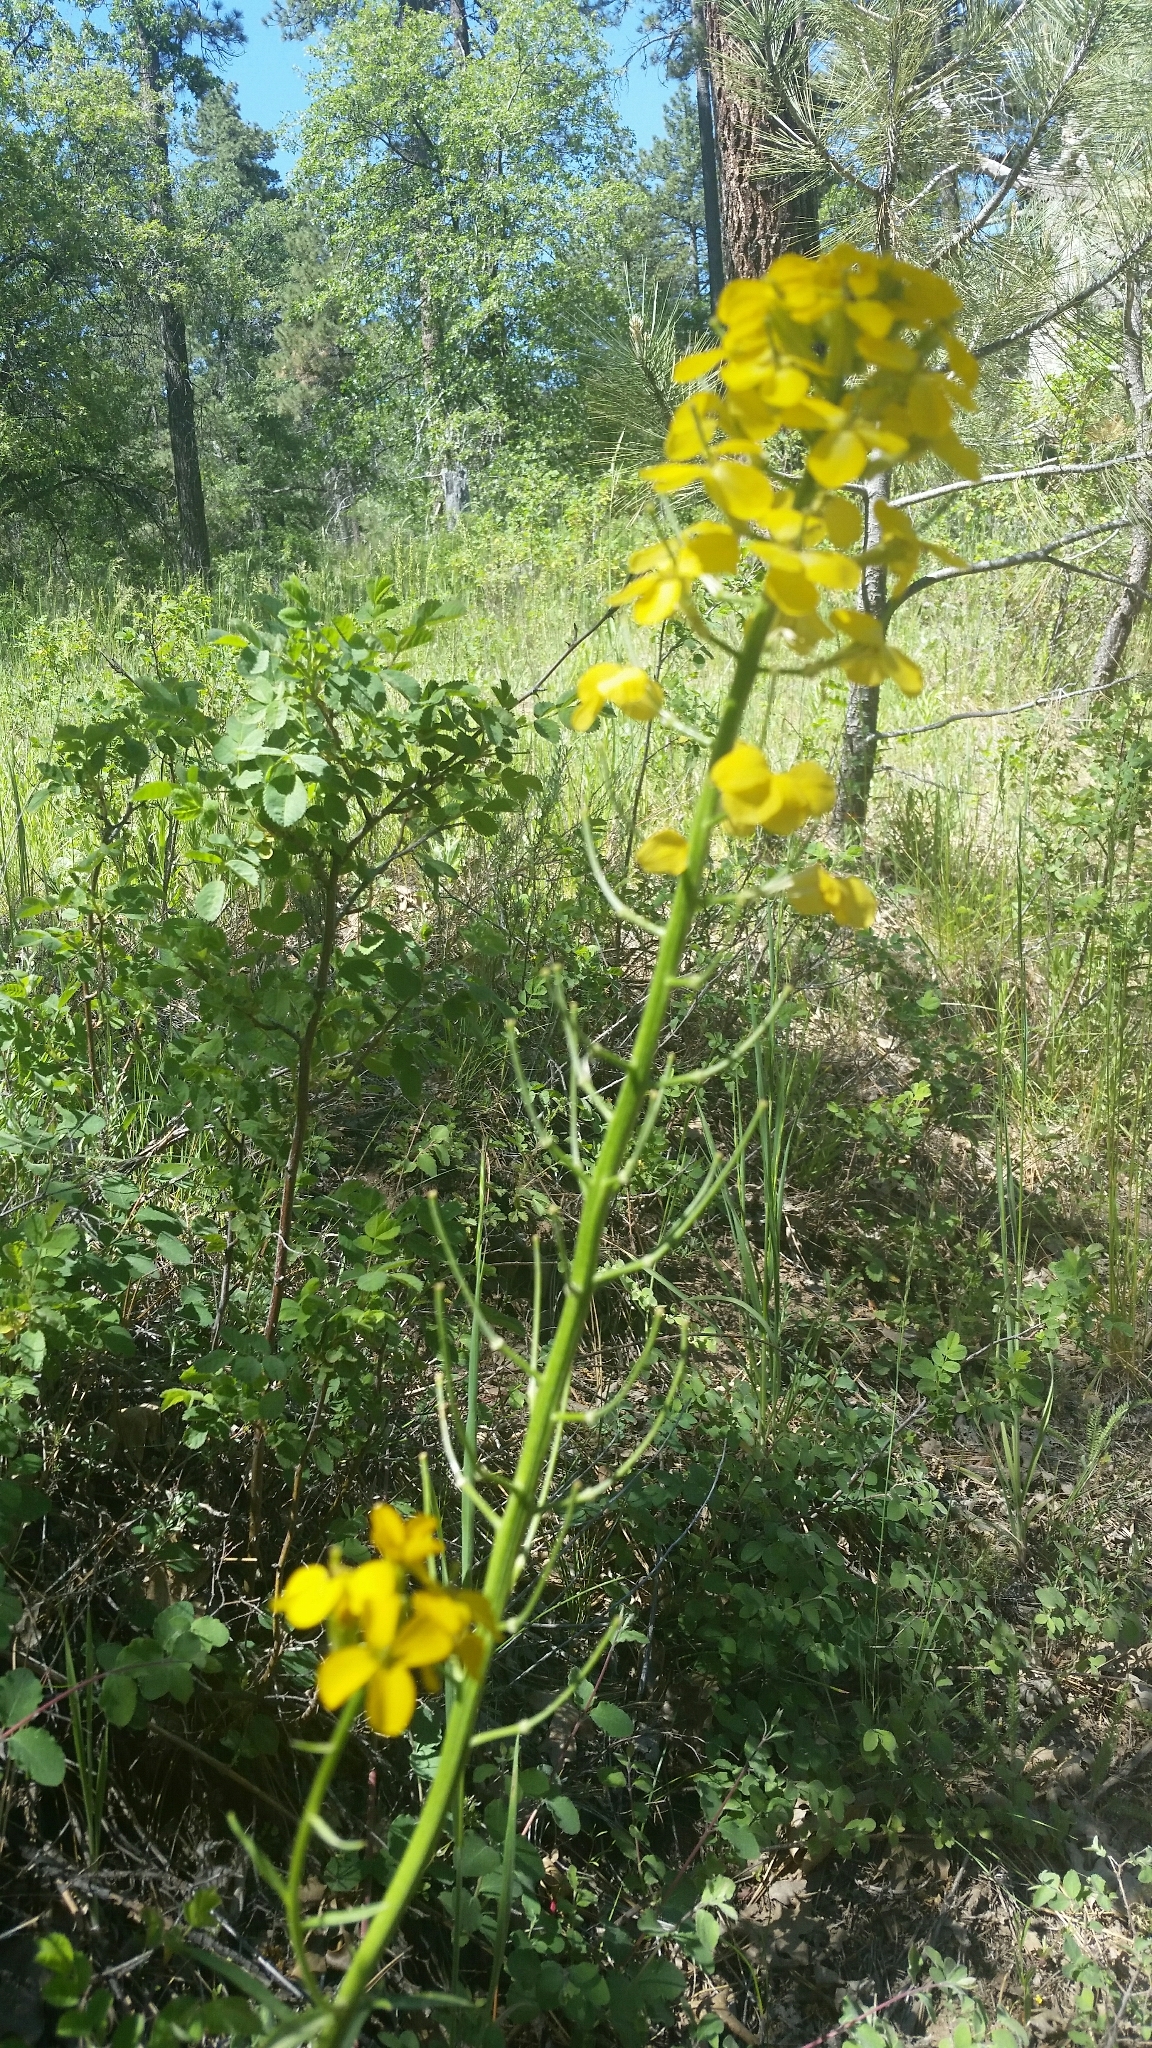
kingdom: Plantae
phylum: Tracheophyta
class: Magnoliopsida
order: Brassicales
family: Brassicaceae
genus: Erysimum
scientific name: Erysimum capitatum
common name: Western wallflower
